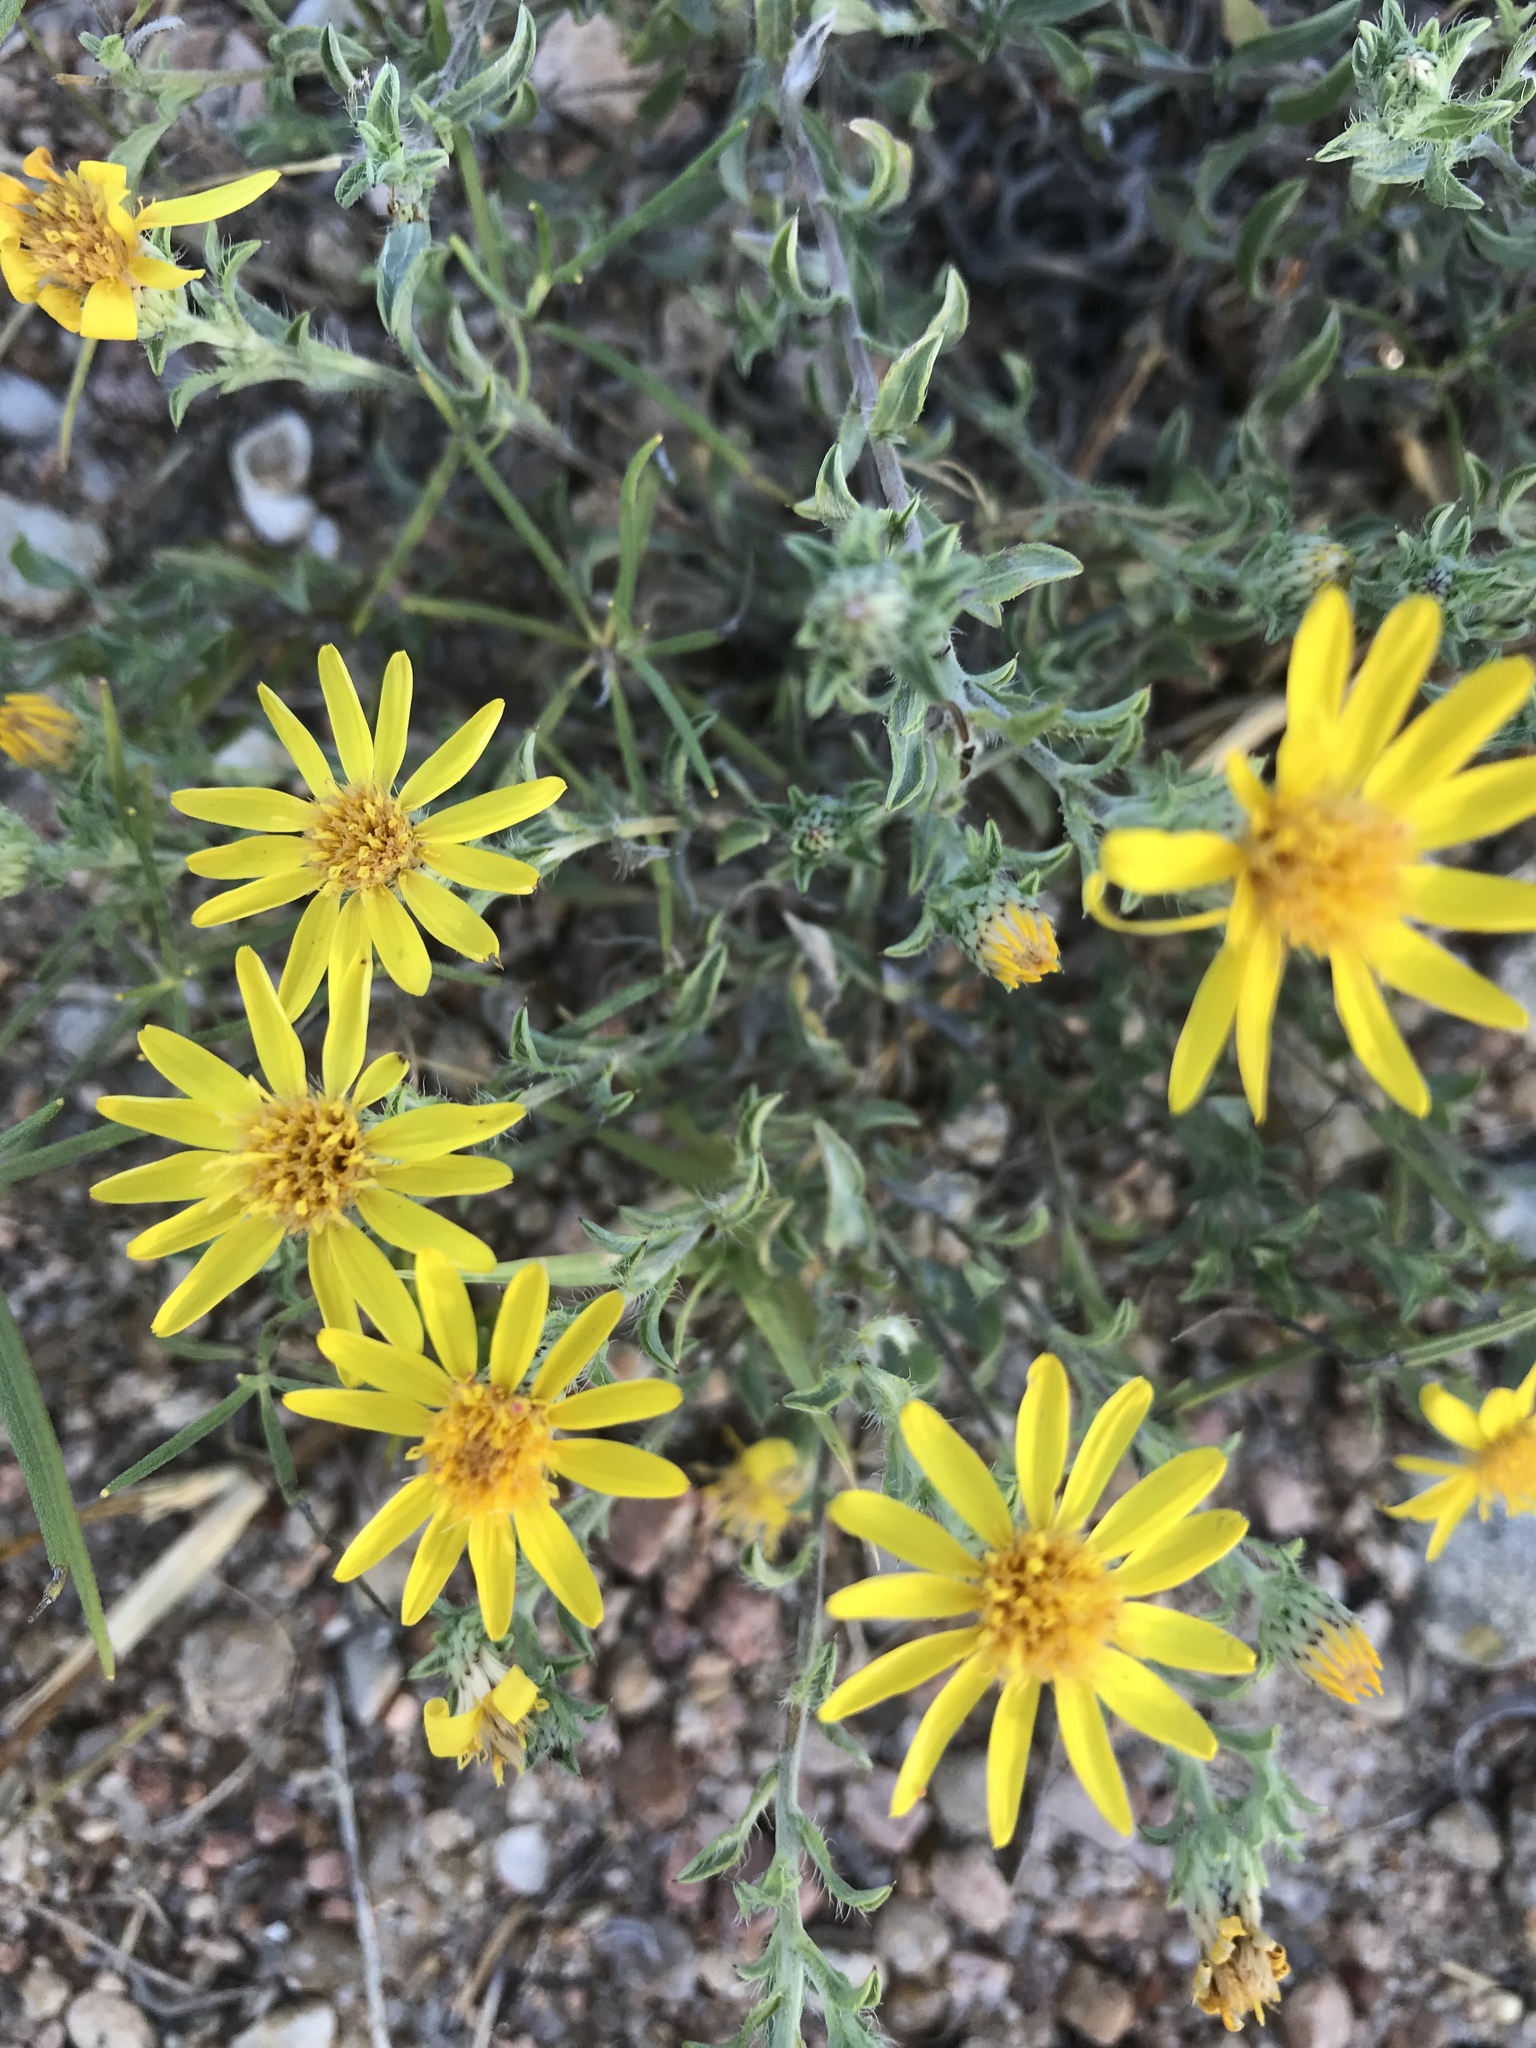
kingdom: Plantae
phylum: Tracheophyta
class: Magnoliopsida
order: Asterales
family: Asteraceae
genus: Heterotheca
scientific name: Heterotheca canescens
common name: Hoary golden-aster
